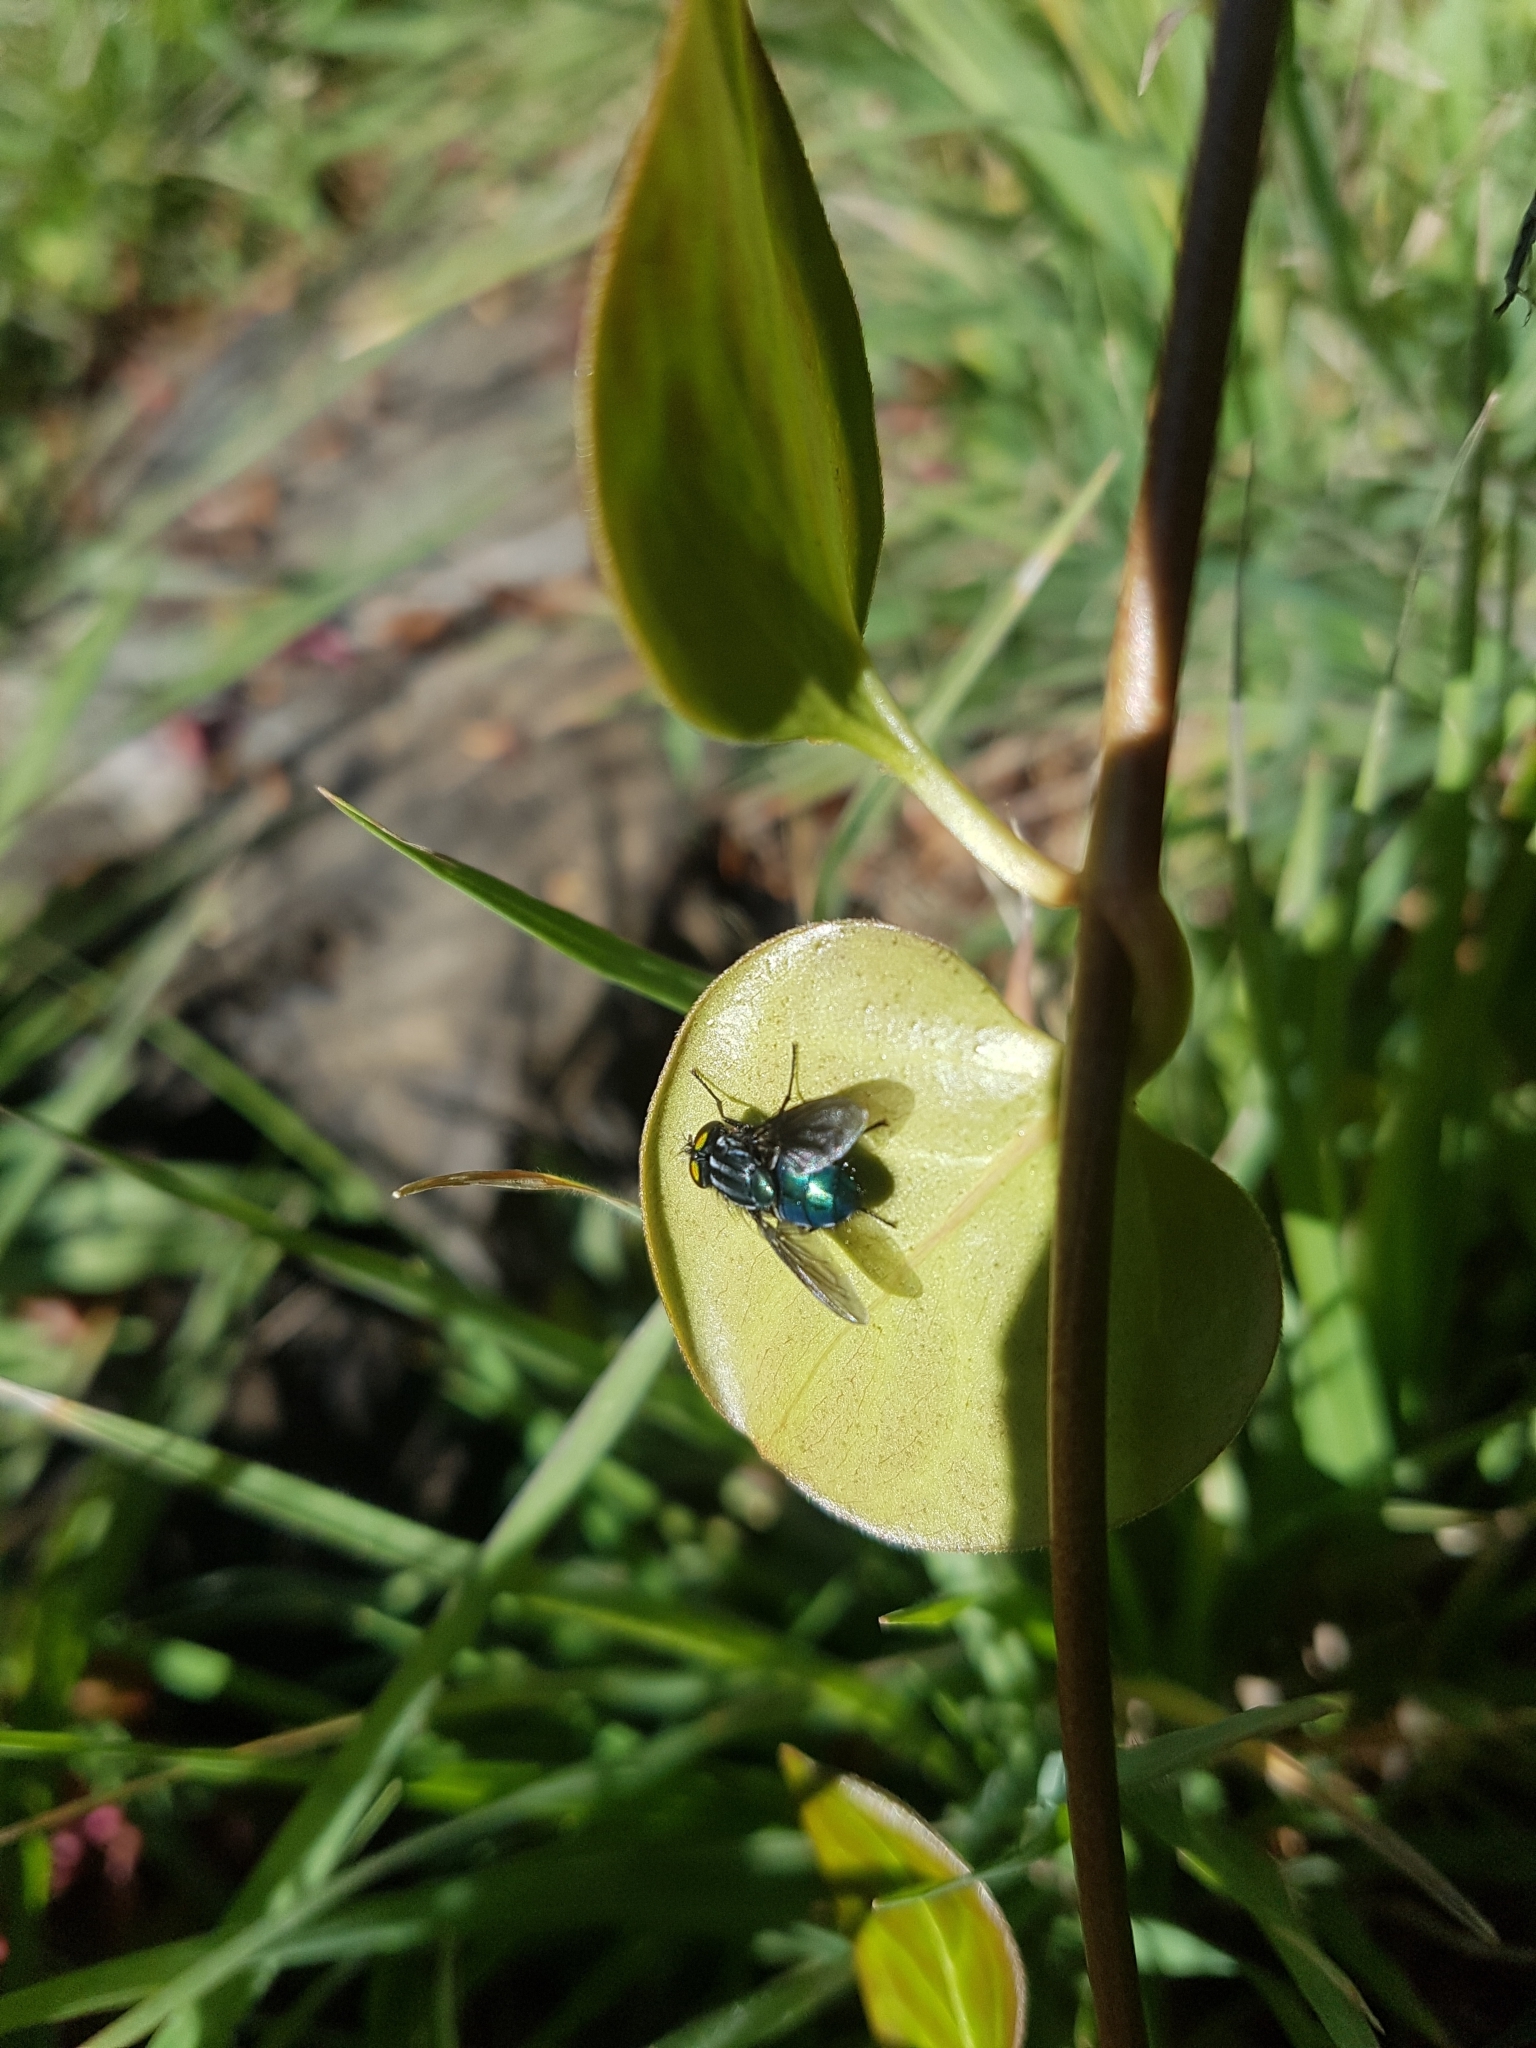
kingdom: Animalia
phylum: Arthropoda
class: Insecta
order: Diptera
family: Calliphoridae
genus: Sarconesia
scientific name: Sarconesia magellanica
